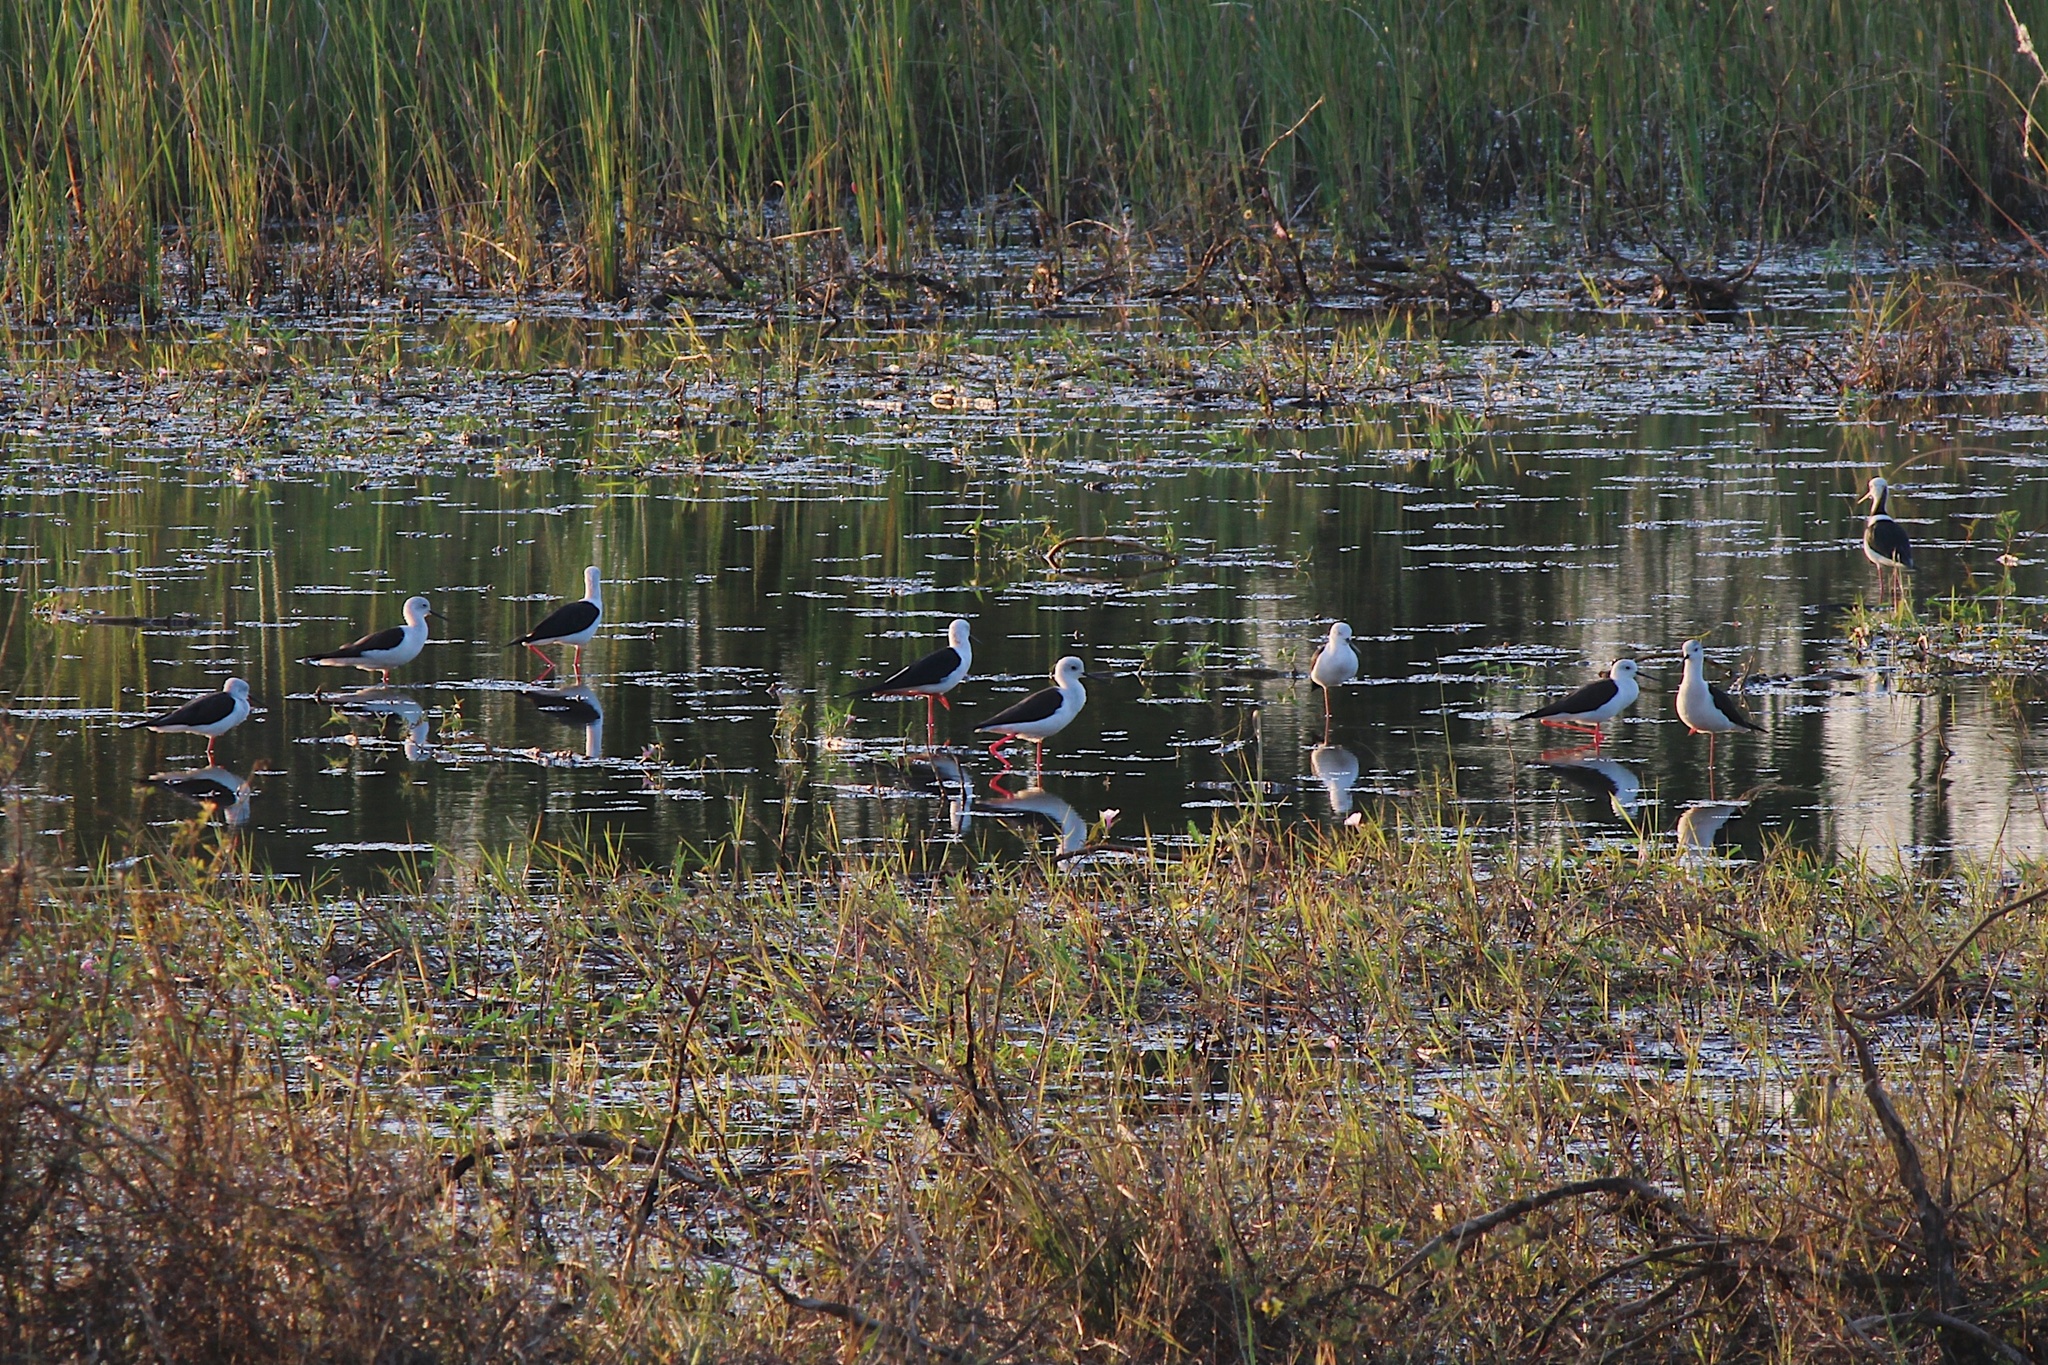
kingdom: Animalia
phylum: Chordata
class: Aves
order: Charadriiformes
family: Recurvirostridae
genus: Himantopus
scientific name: Himantopus himantopus
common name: Black-winged stilt
